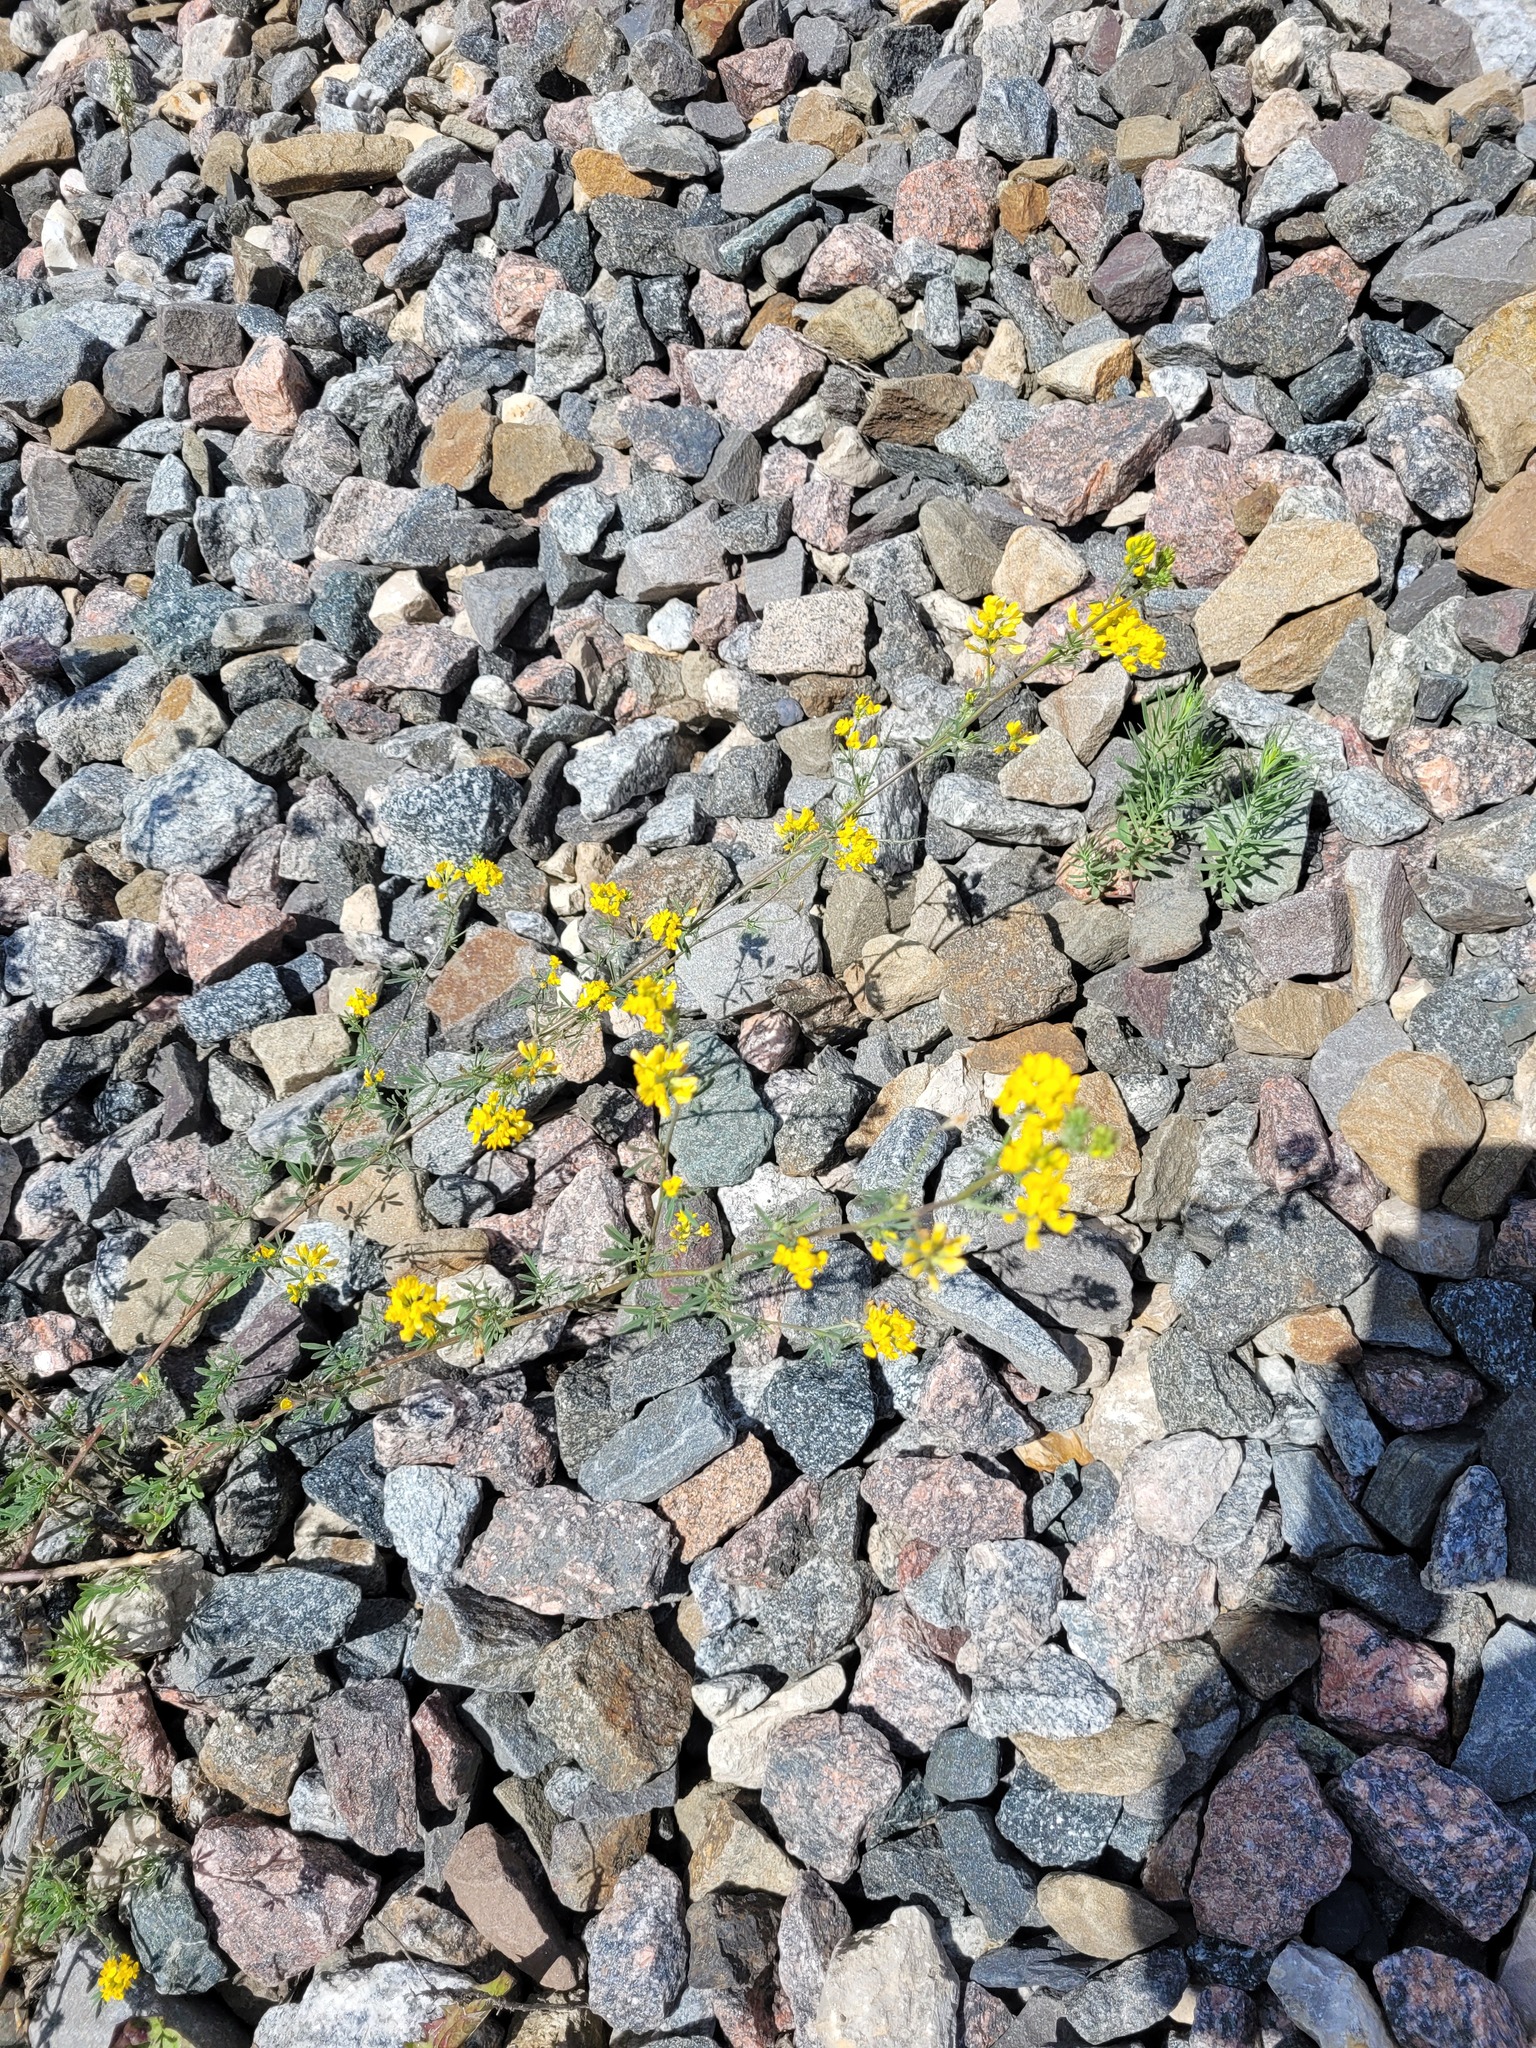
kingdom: Plantae
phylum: Tracheophyta
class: Magnoliopsida
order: Fabales
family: Fabaceae
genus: Medicago
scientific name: Medicago falcata
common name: Sickle medick
